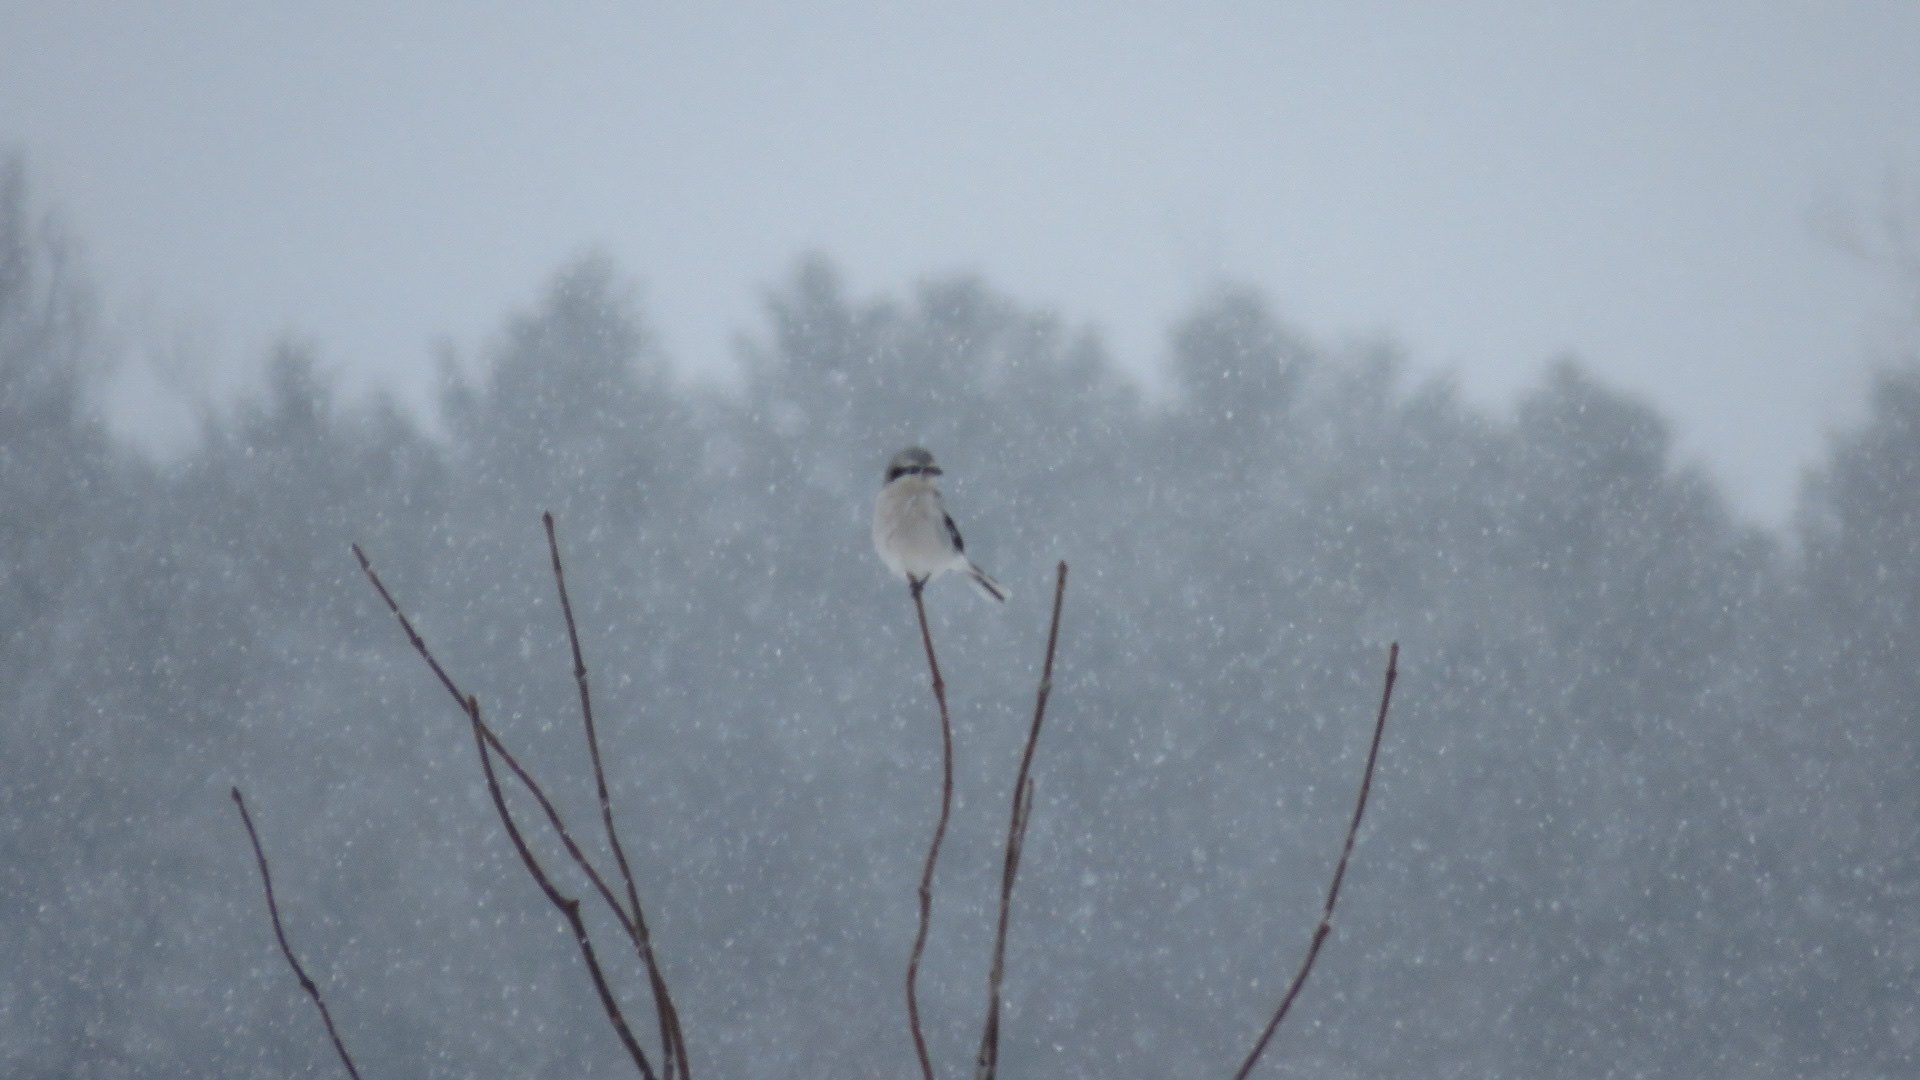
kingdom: Animalia
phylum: Chordata
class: Aves
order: Passeriformes
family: Laniidae
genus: Lanius
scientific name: Lanius borealis
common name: Northern shrike
